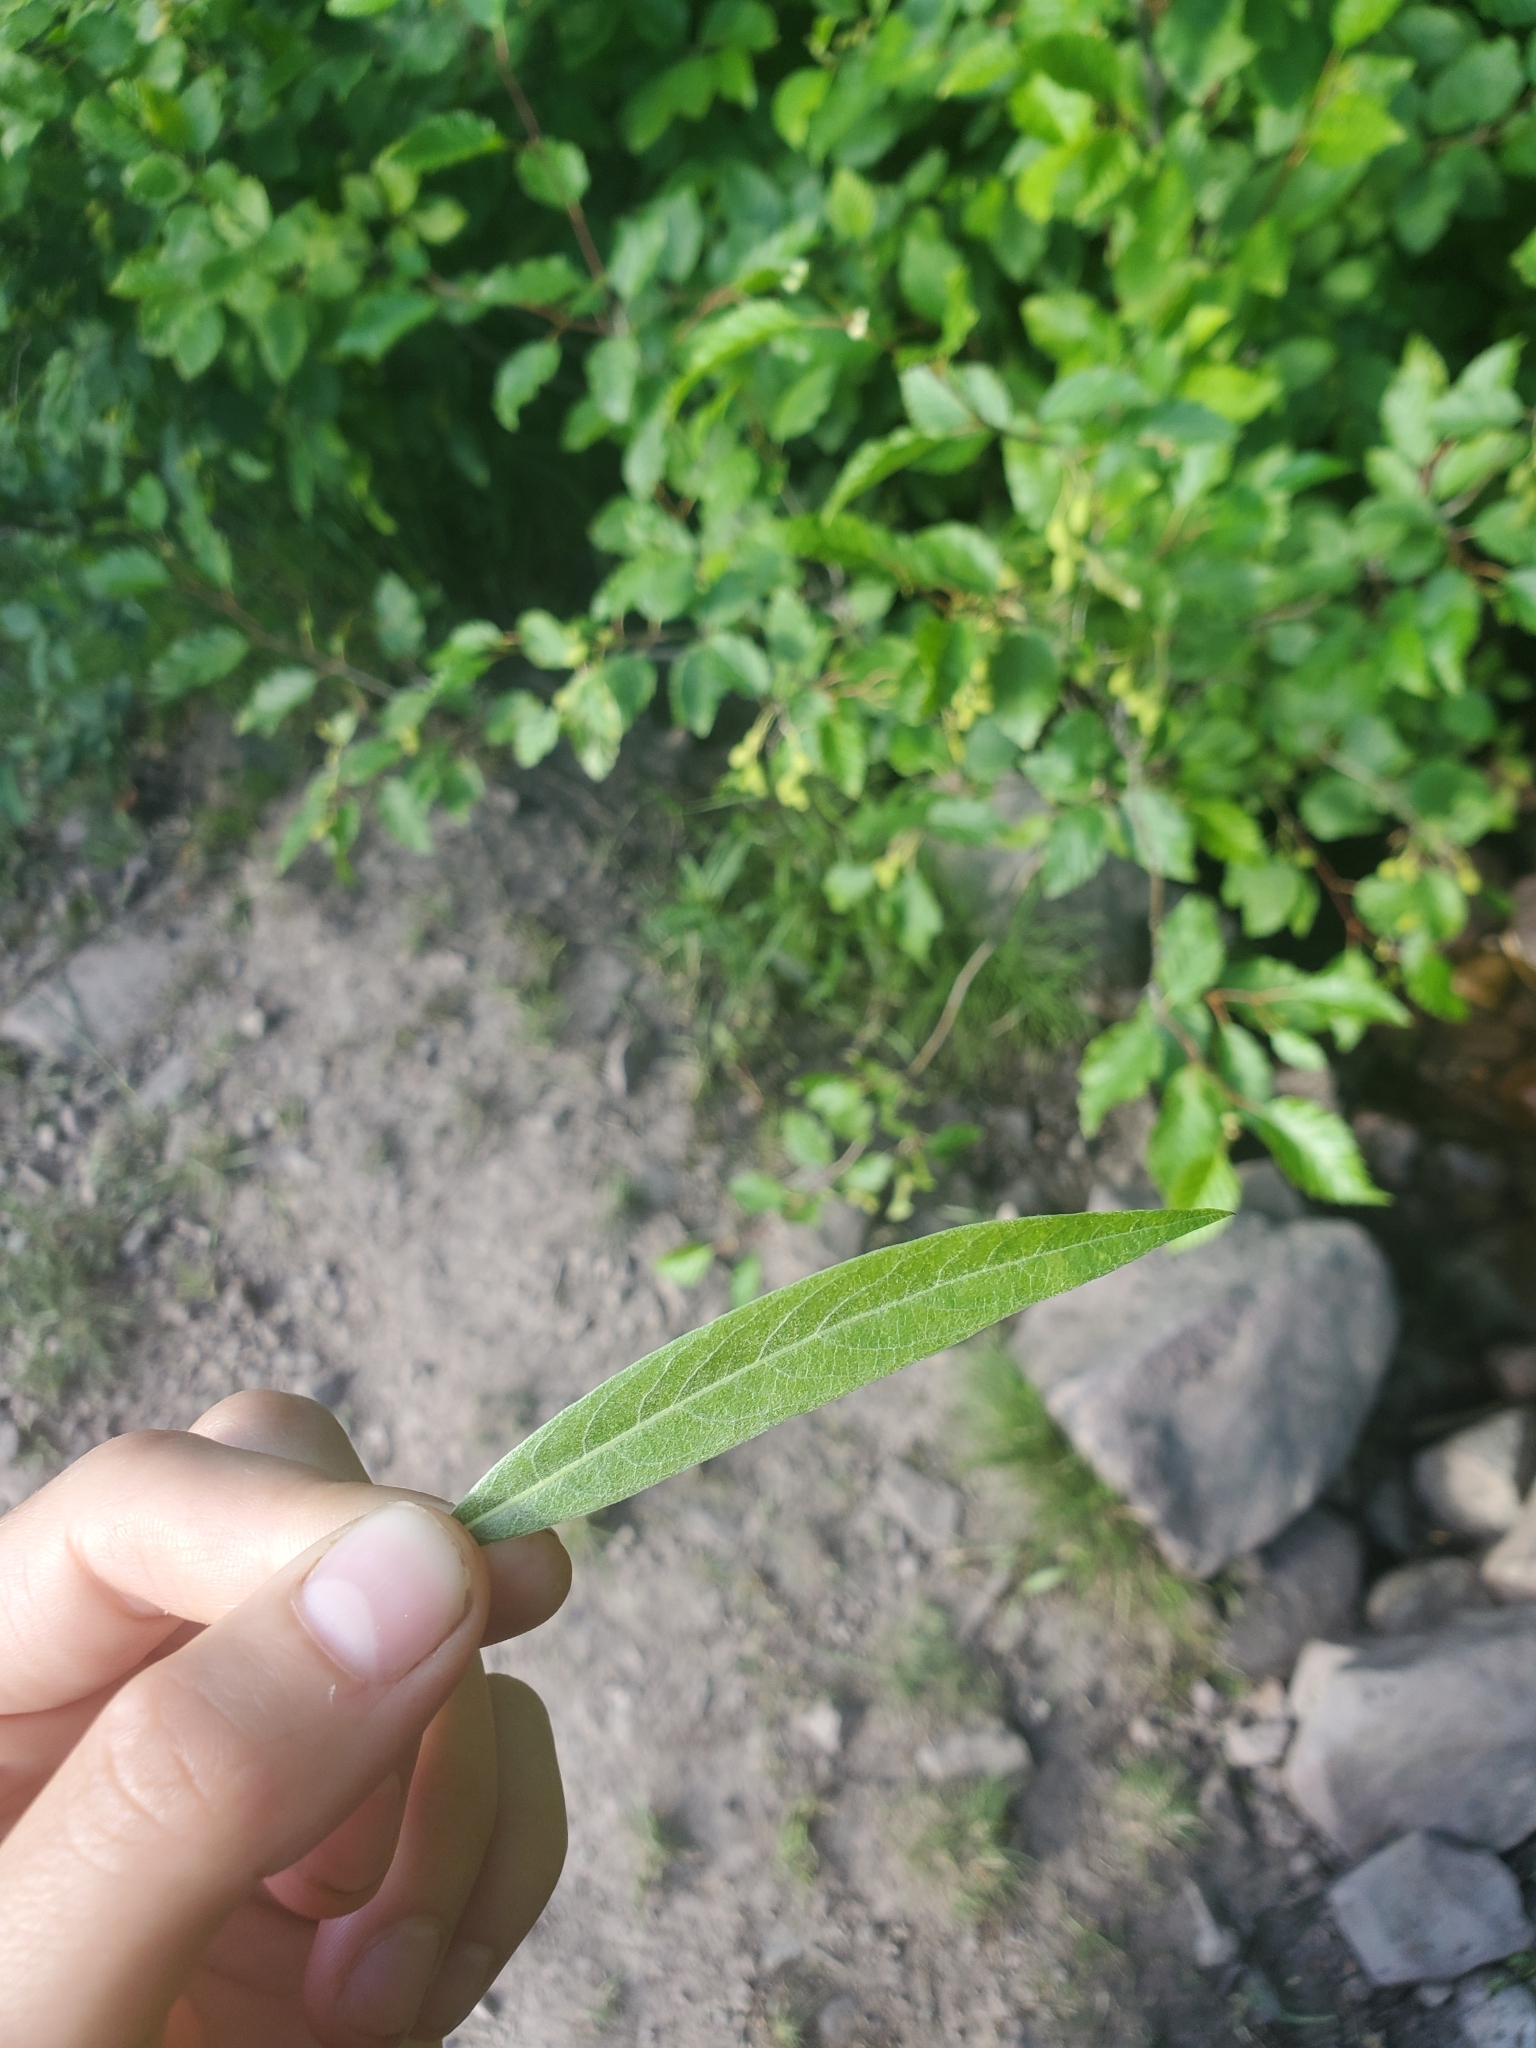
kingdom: Plantae
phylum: Tracheophyta
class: Magnoliopsida
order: Malpighiales
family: Salicaceae
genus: Salix
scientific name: Salix geyeriana
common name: Geyer's willow
